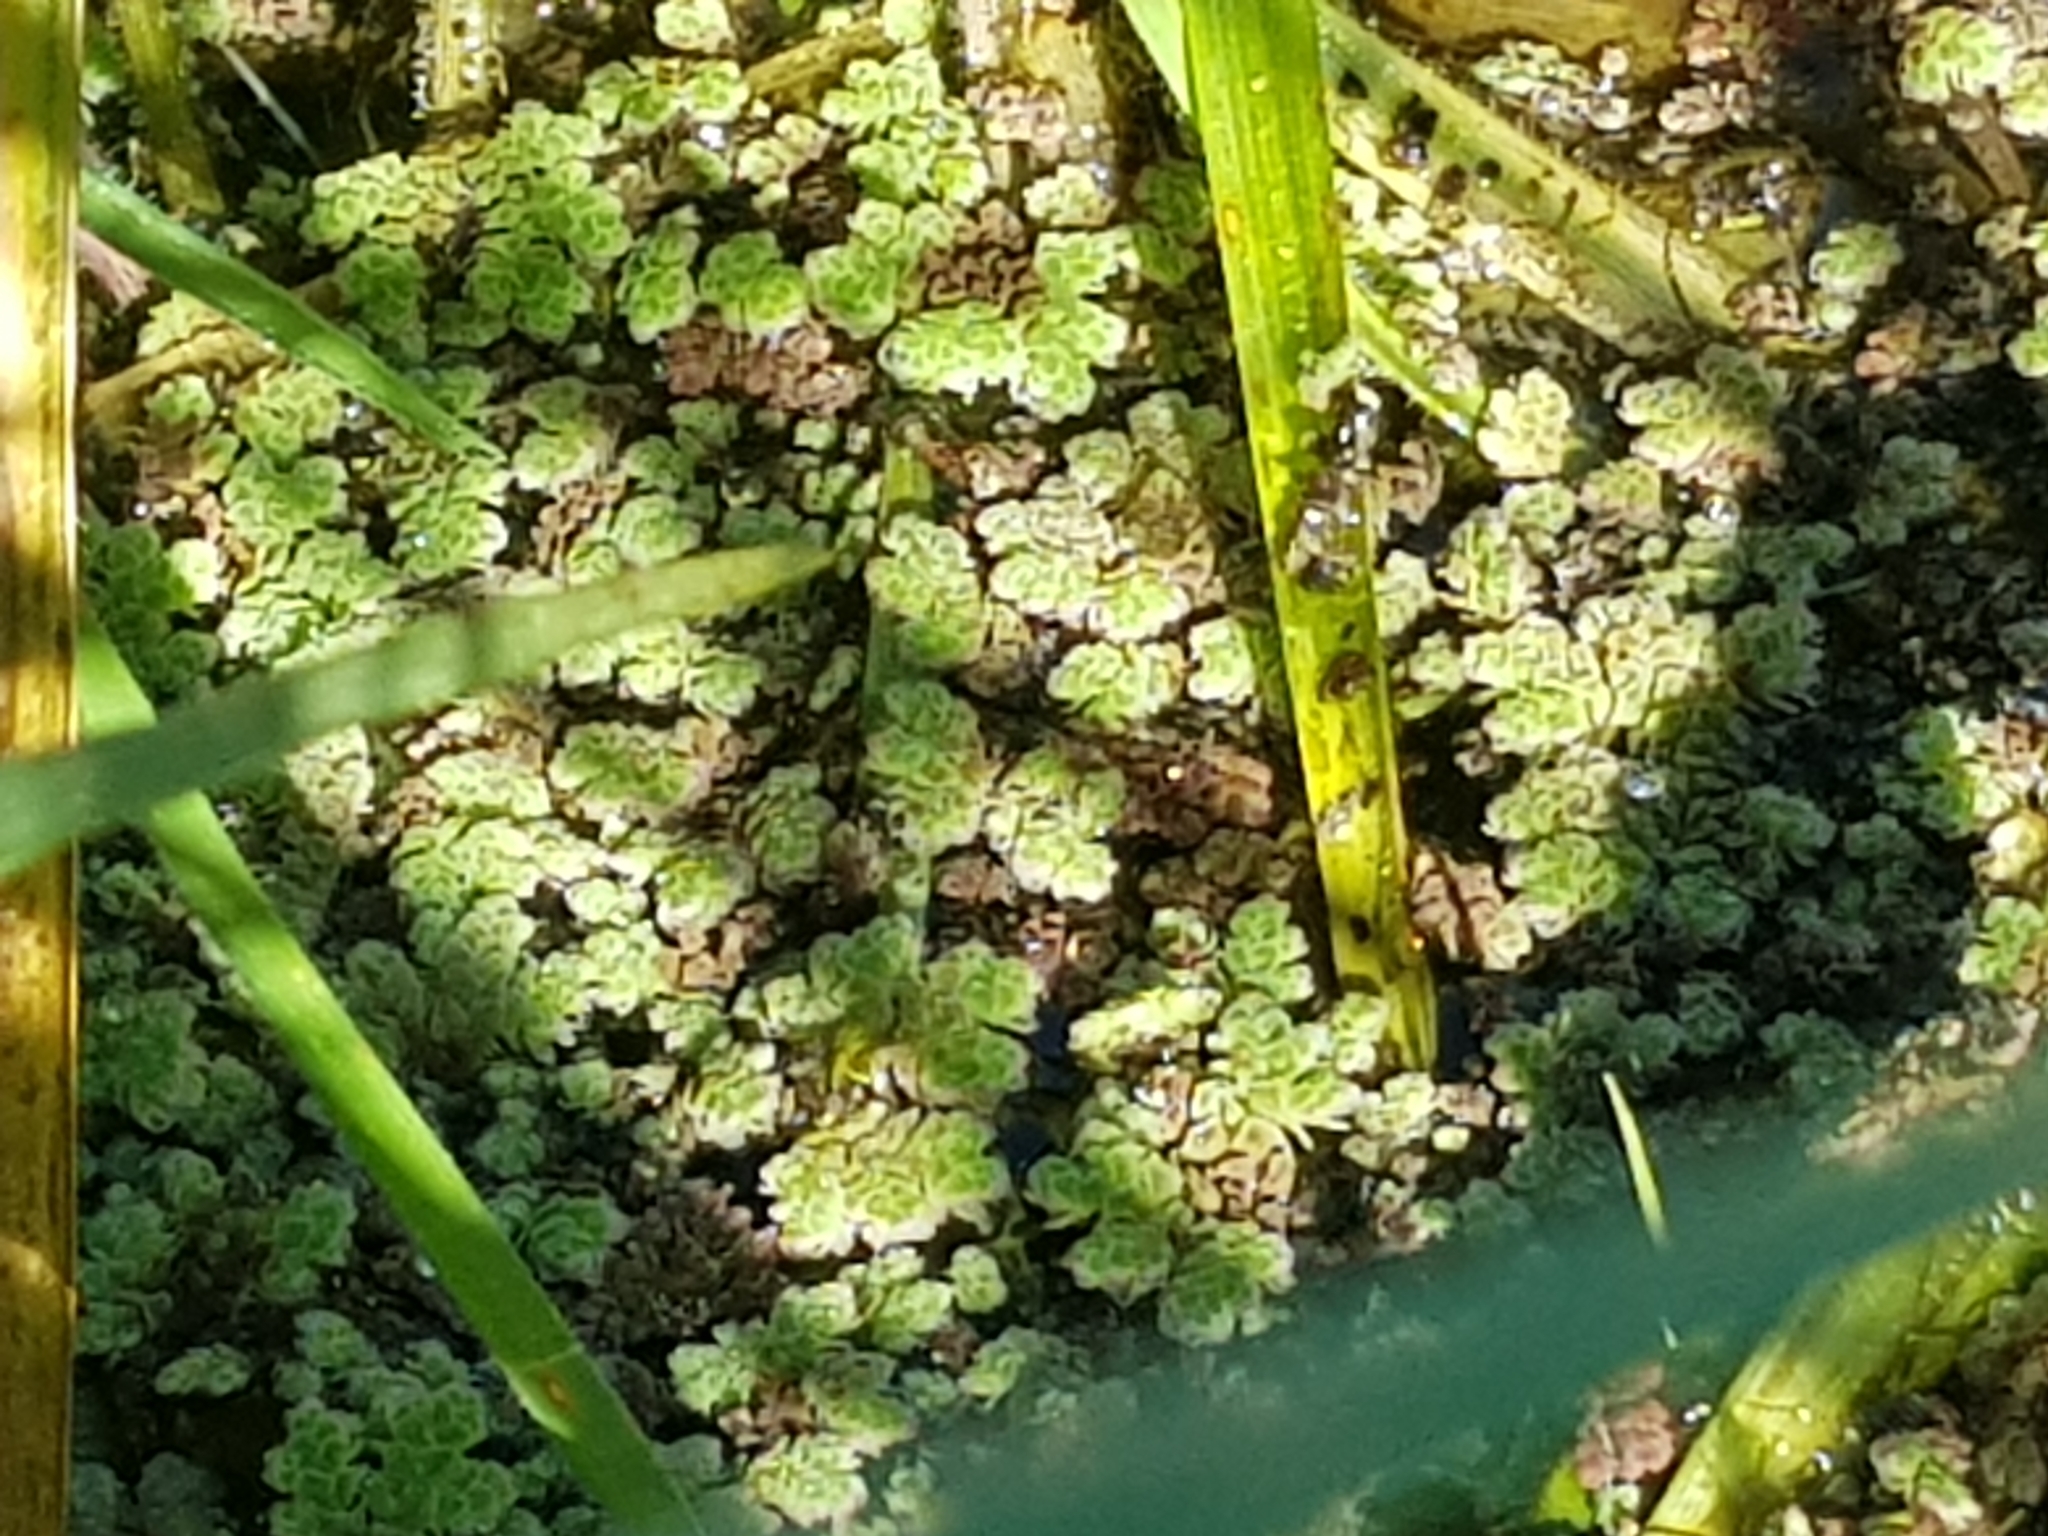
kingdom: Plantae
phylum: Tracheophyta
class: Polypodiopsida
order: Salviniales
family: Salviniaceae
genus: Azolla
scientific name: Azolla rubra
